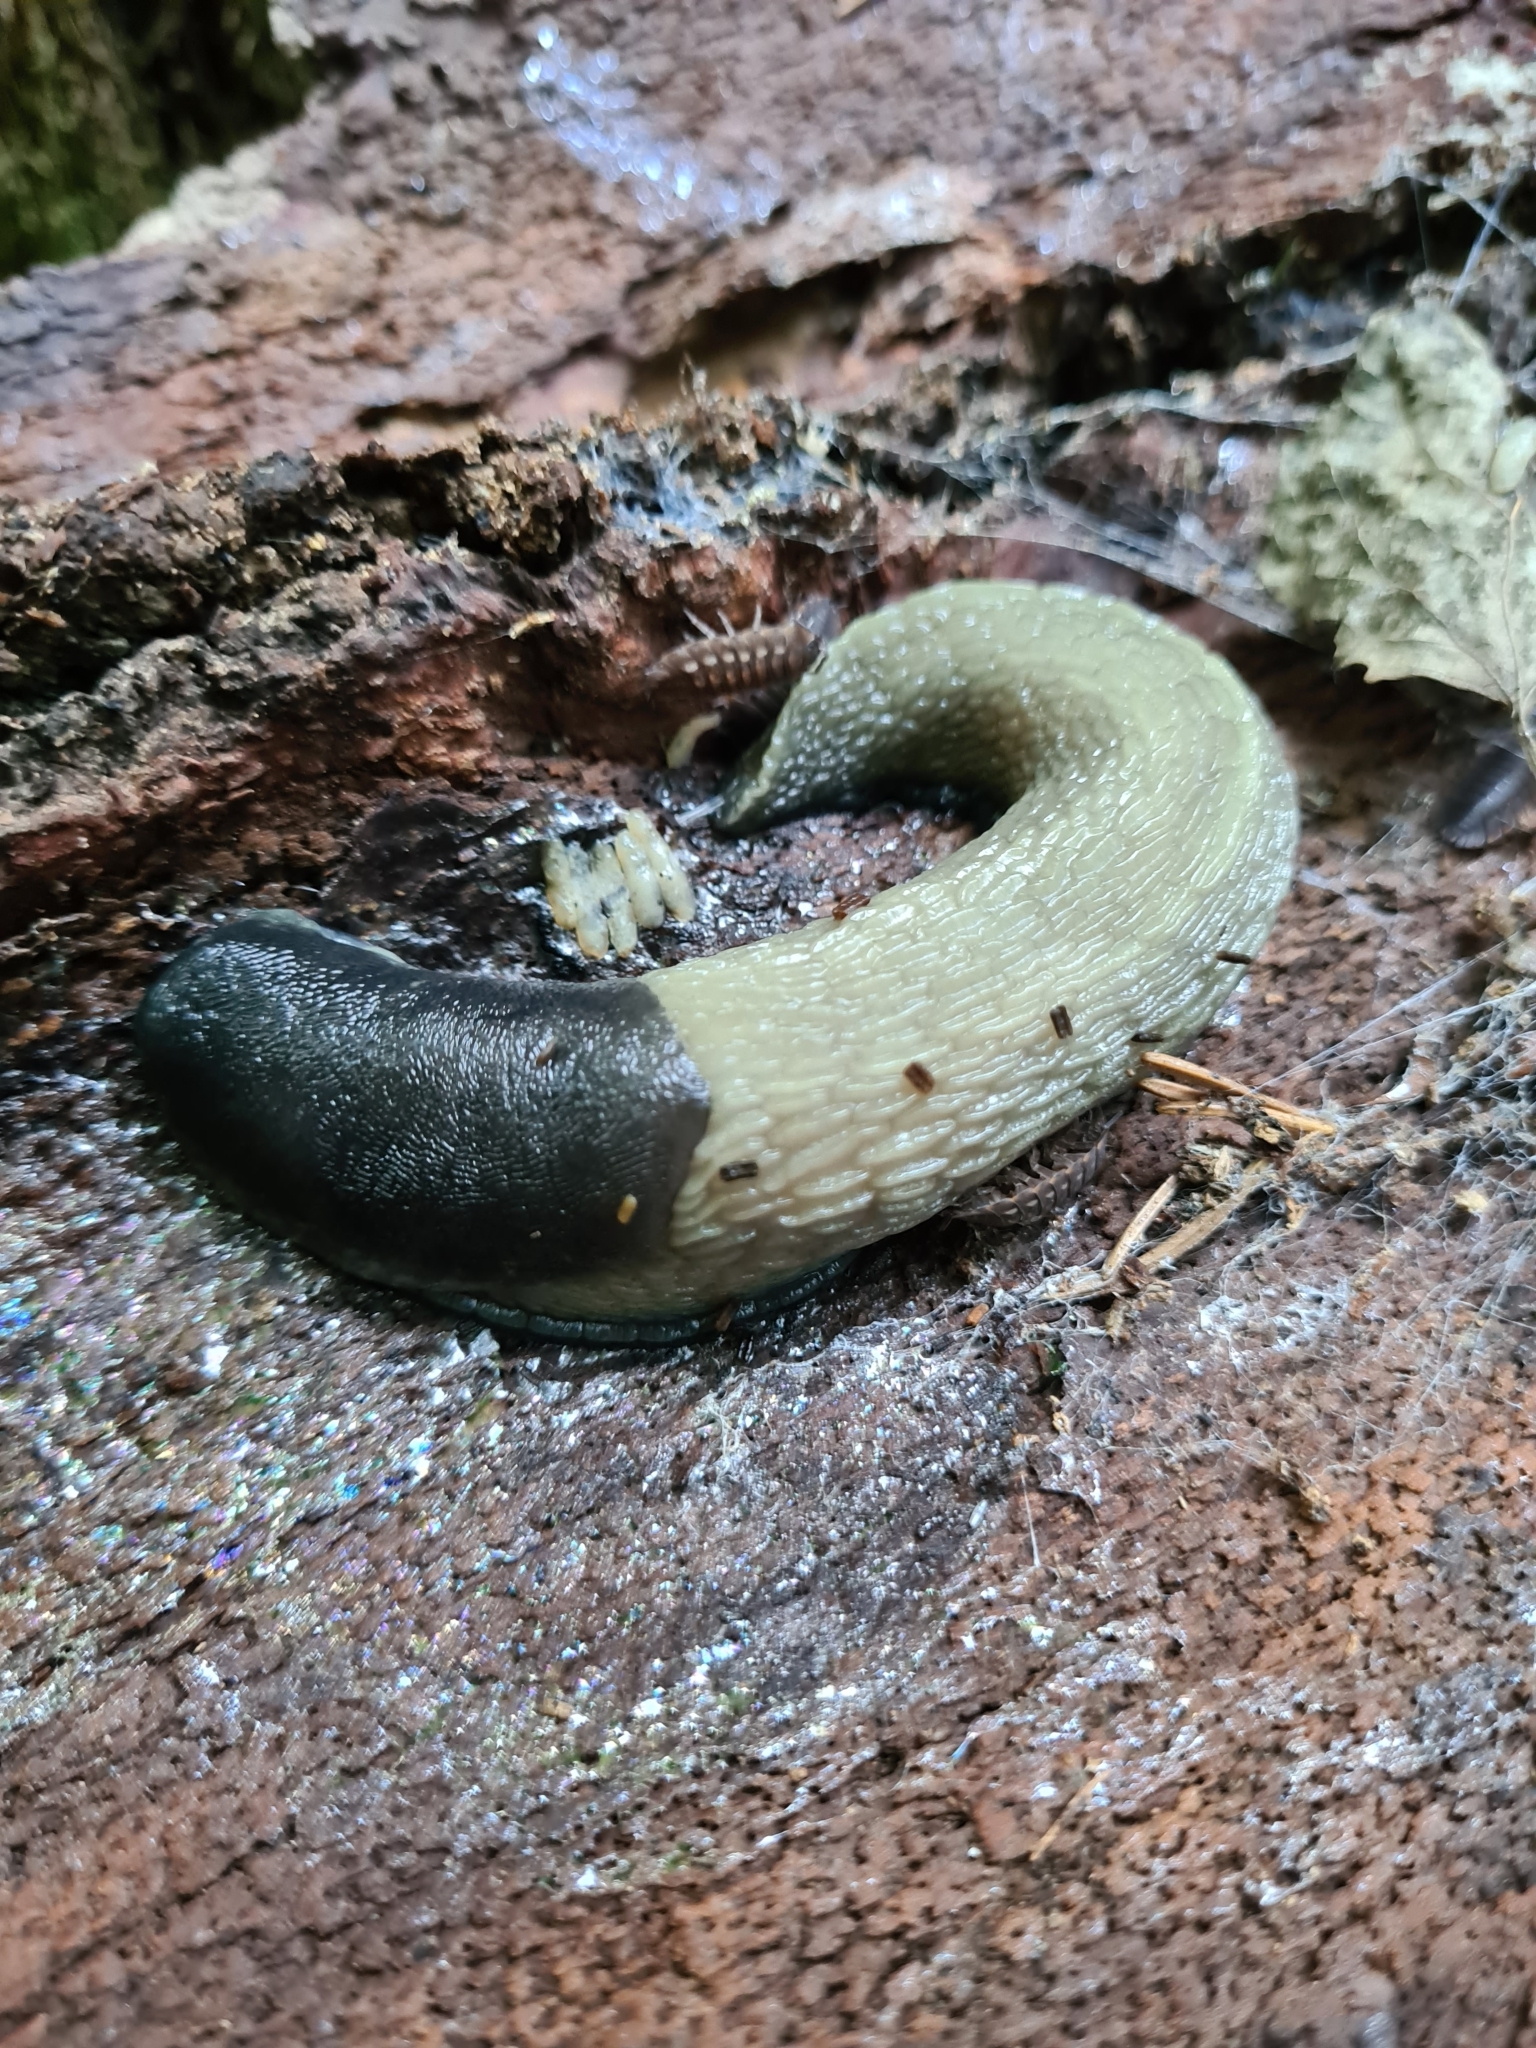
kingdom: Animalia
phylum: Mollusca
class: Gastropoda
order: Stylommatophora
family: Limacidae
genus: Limax
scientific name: Limax cinereoniger
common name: Ash-black slug
